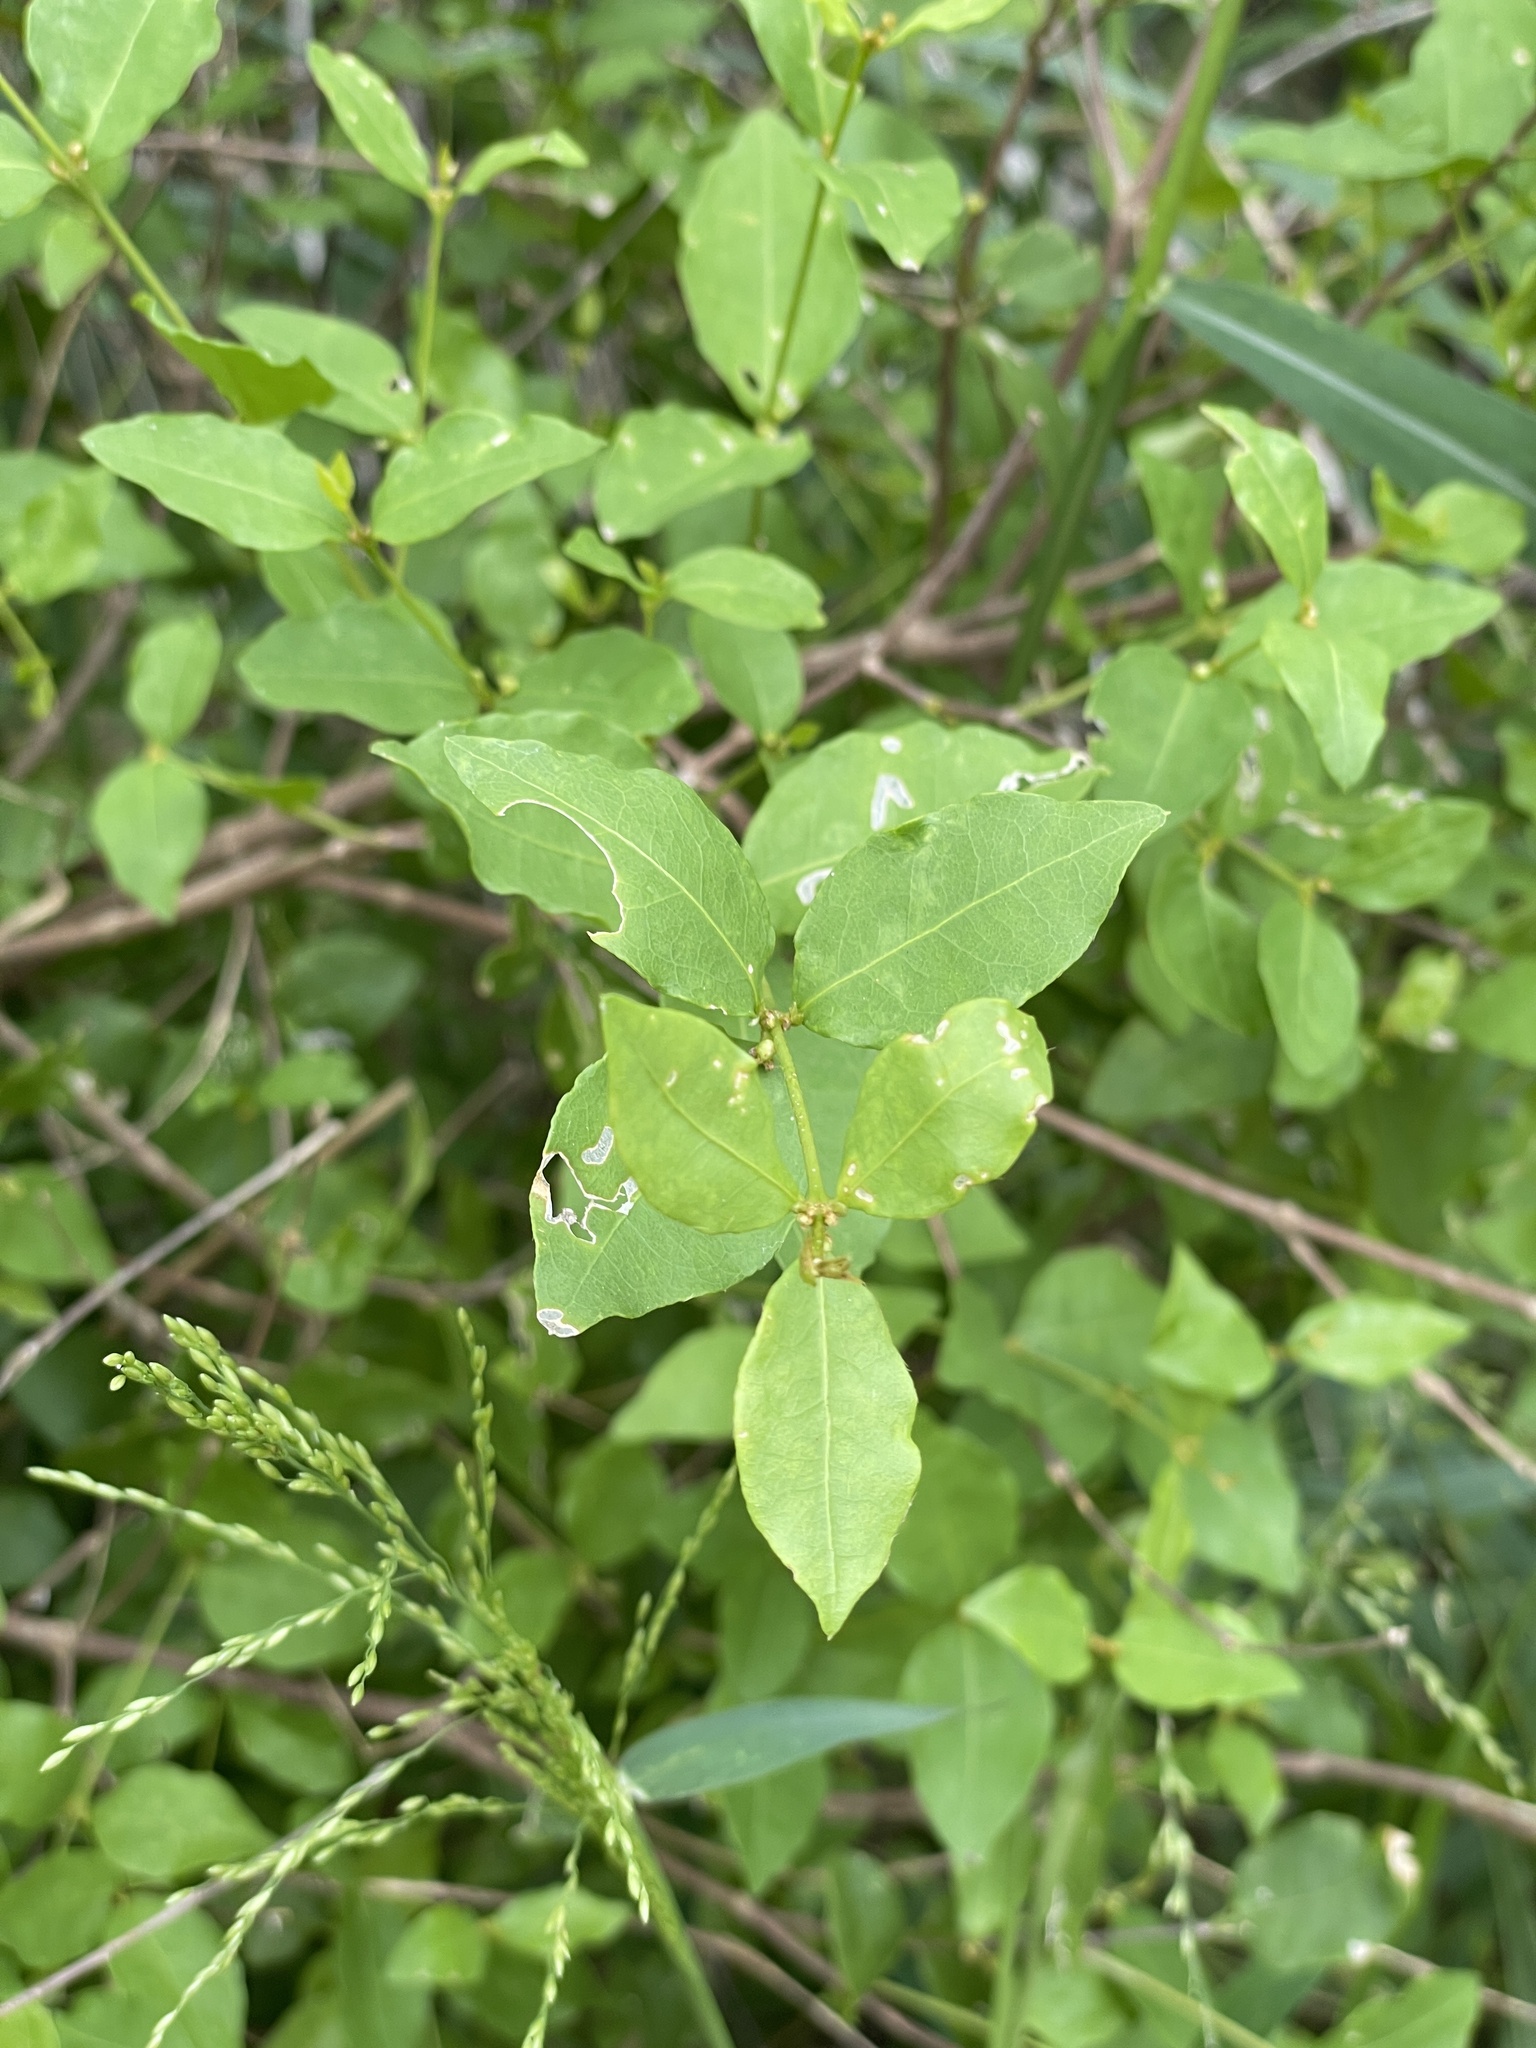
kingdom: Plantae
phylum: Tracheophyta
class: Magnoliopsida
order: Malpighiales
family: Malpighiaceae
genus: Malpighia
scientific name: Malpighia glabra
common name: Barbados cherry
